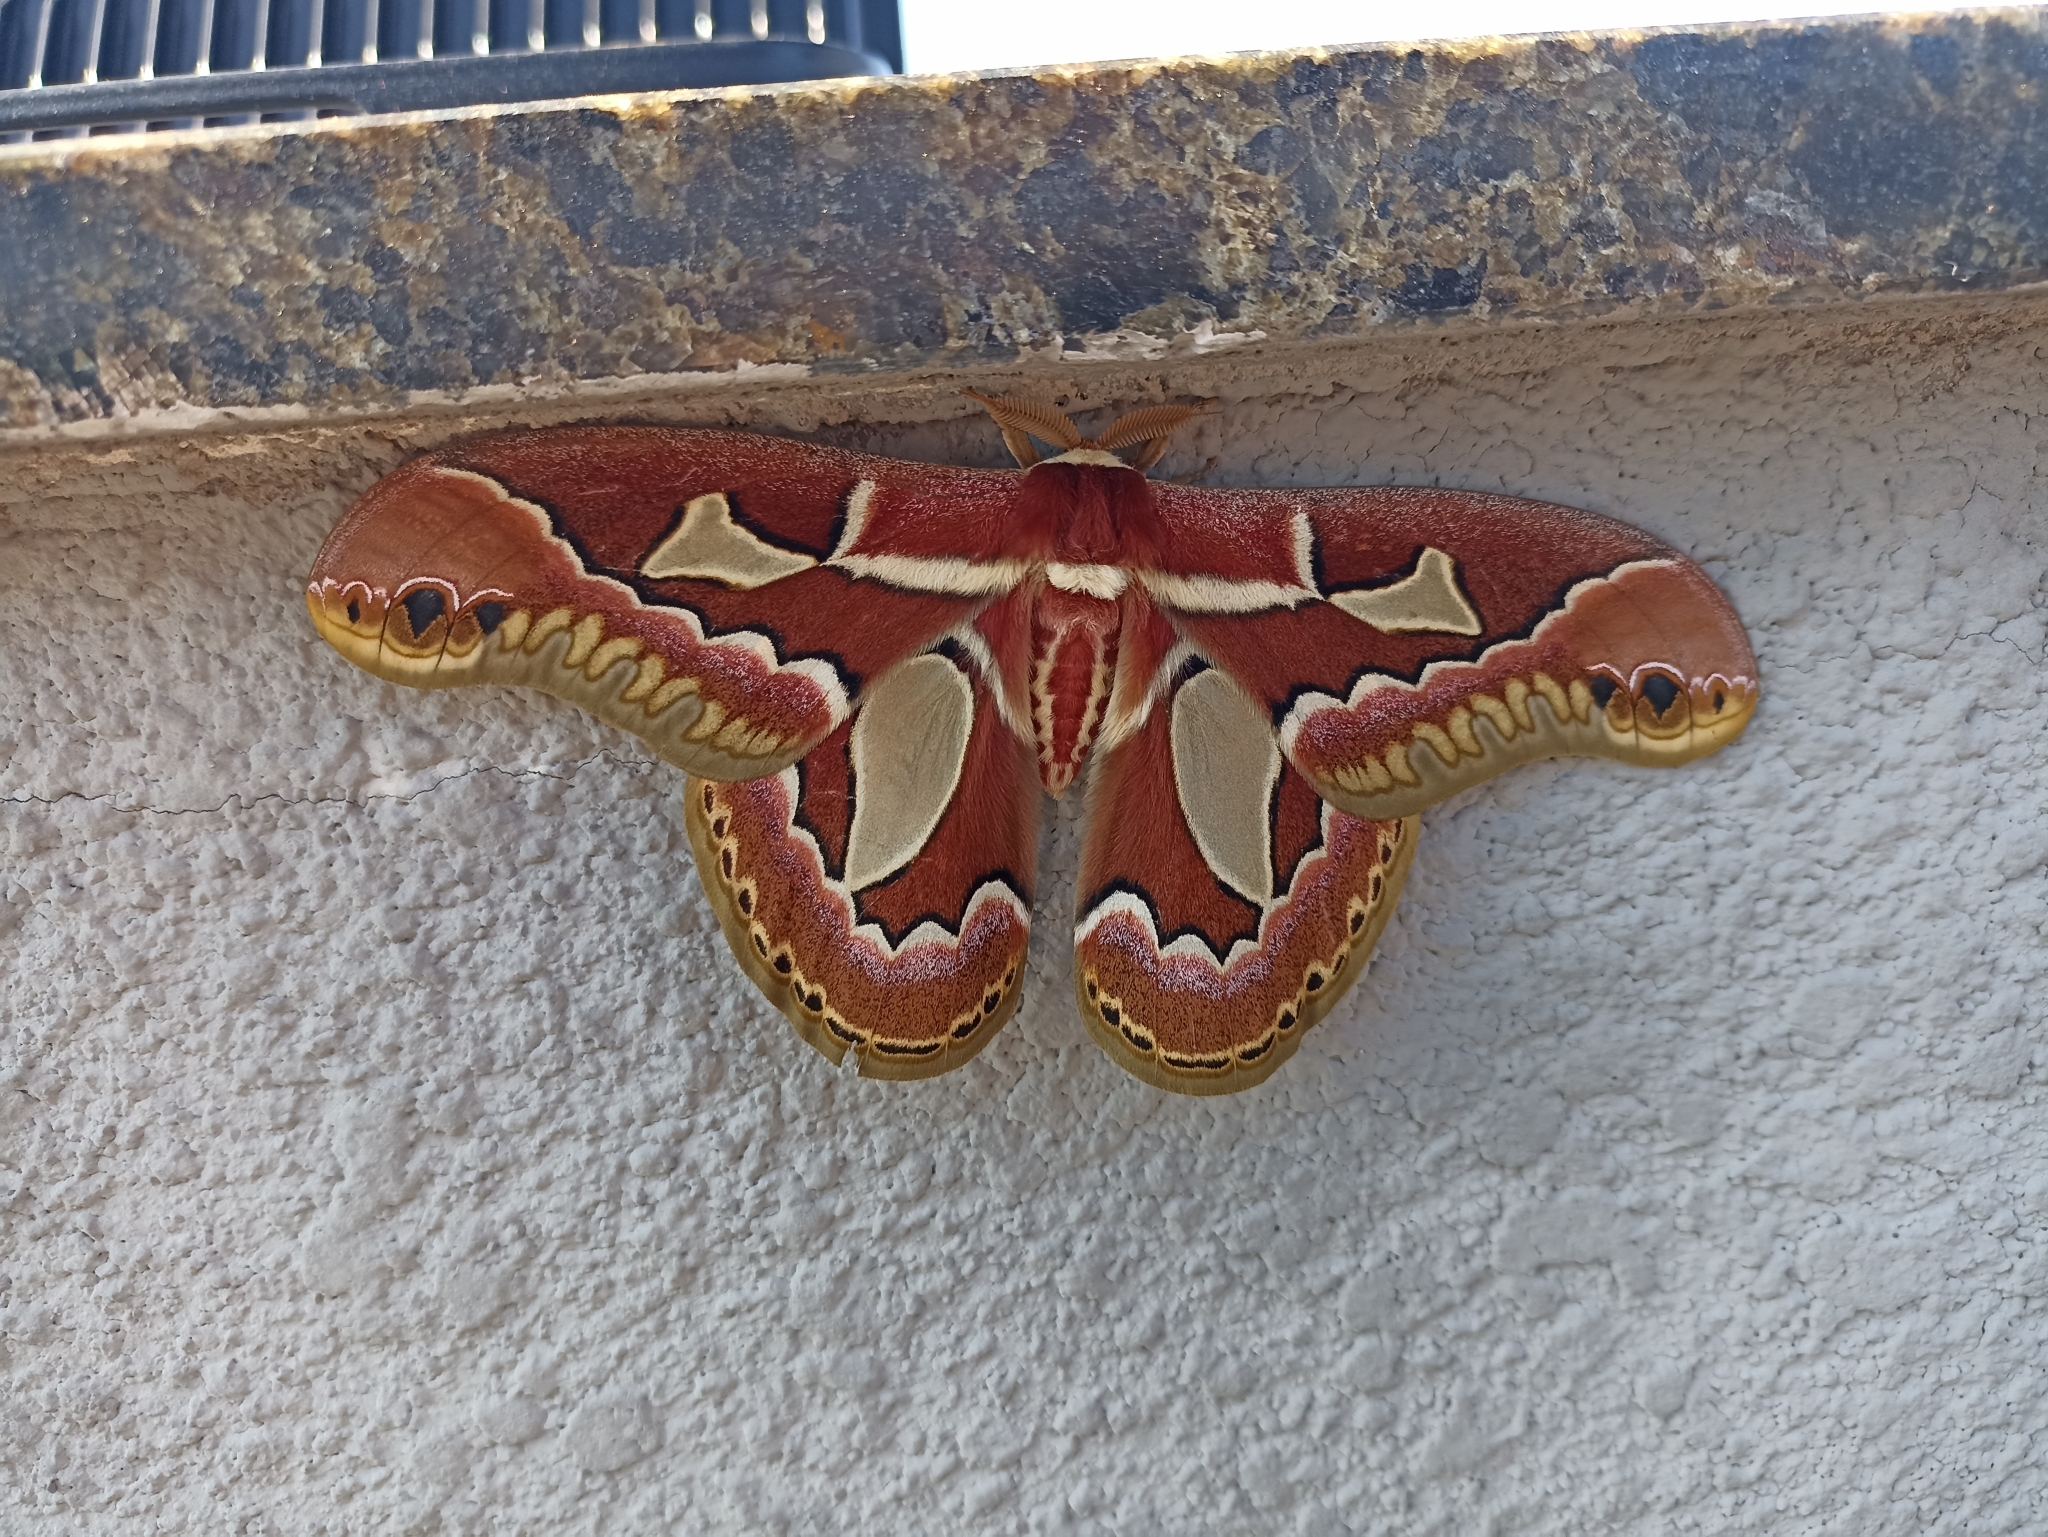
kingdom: Animalia
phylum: Arthropoda
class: Insecta
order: Lepidoptera
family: Saturniidae
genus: Rothschildia
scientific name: Rothschildia jacobaeae
